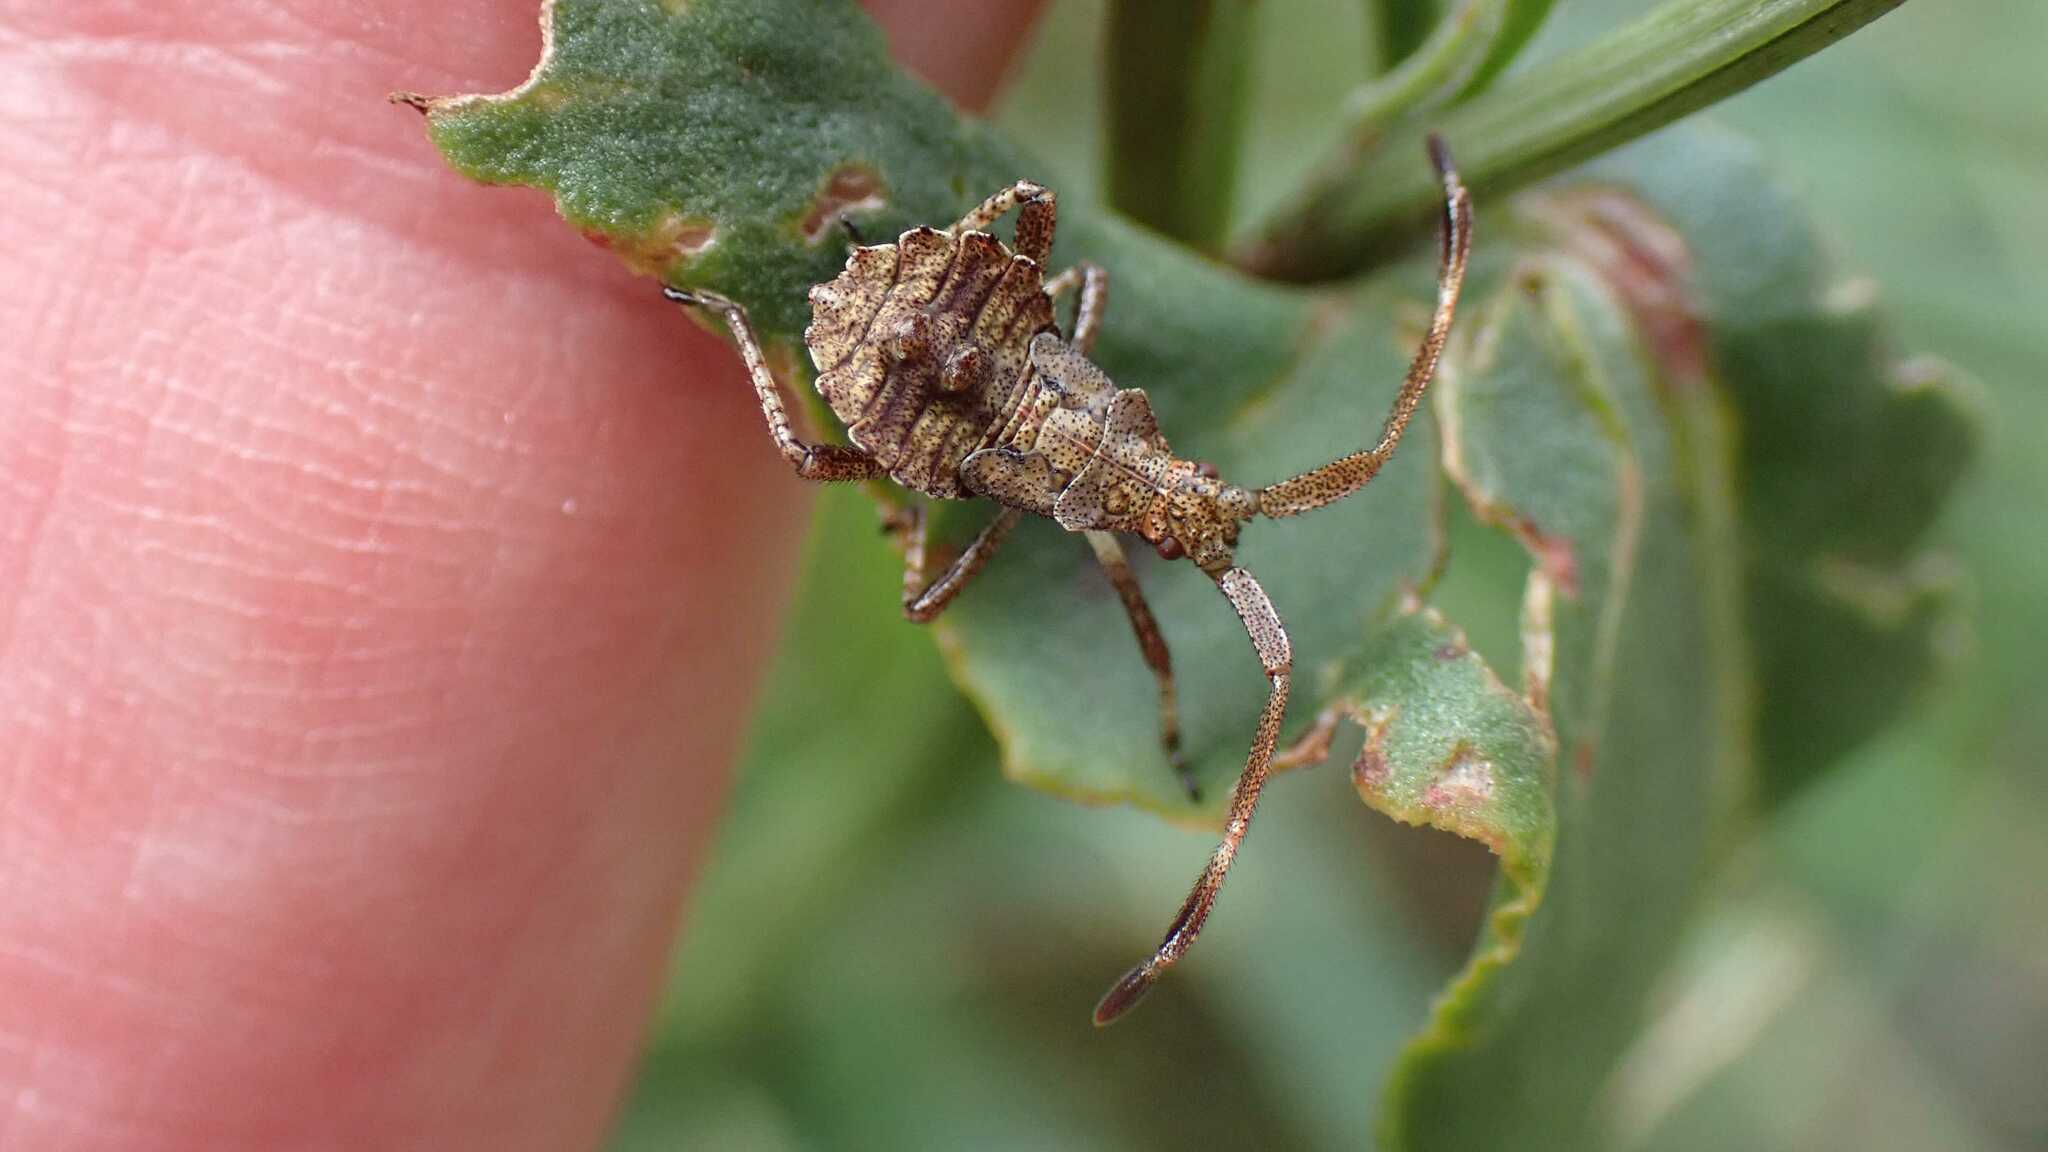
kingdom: Animalia
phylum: Arthropoda
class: Insecta
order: Hemiptera
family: Coreidae
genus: Coreus
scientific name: Coreus marginatus
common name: Dock bug
